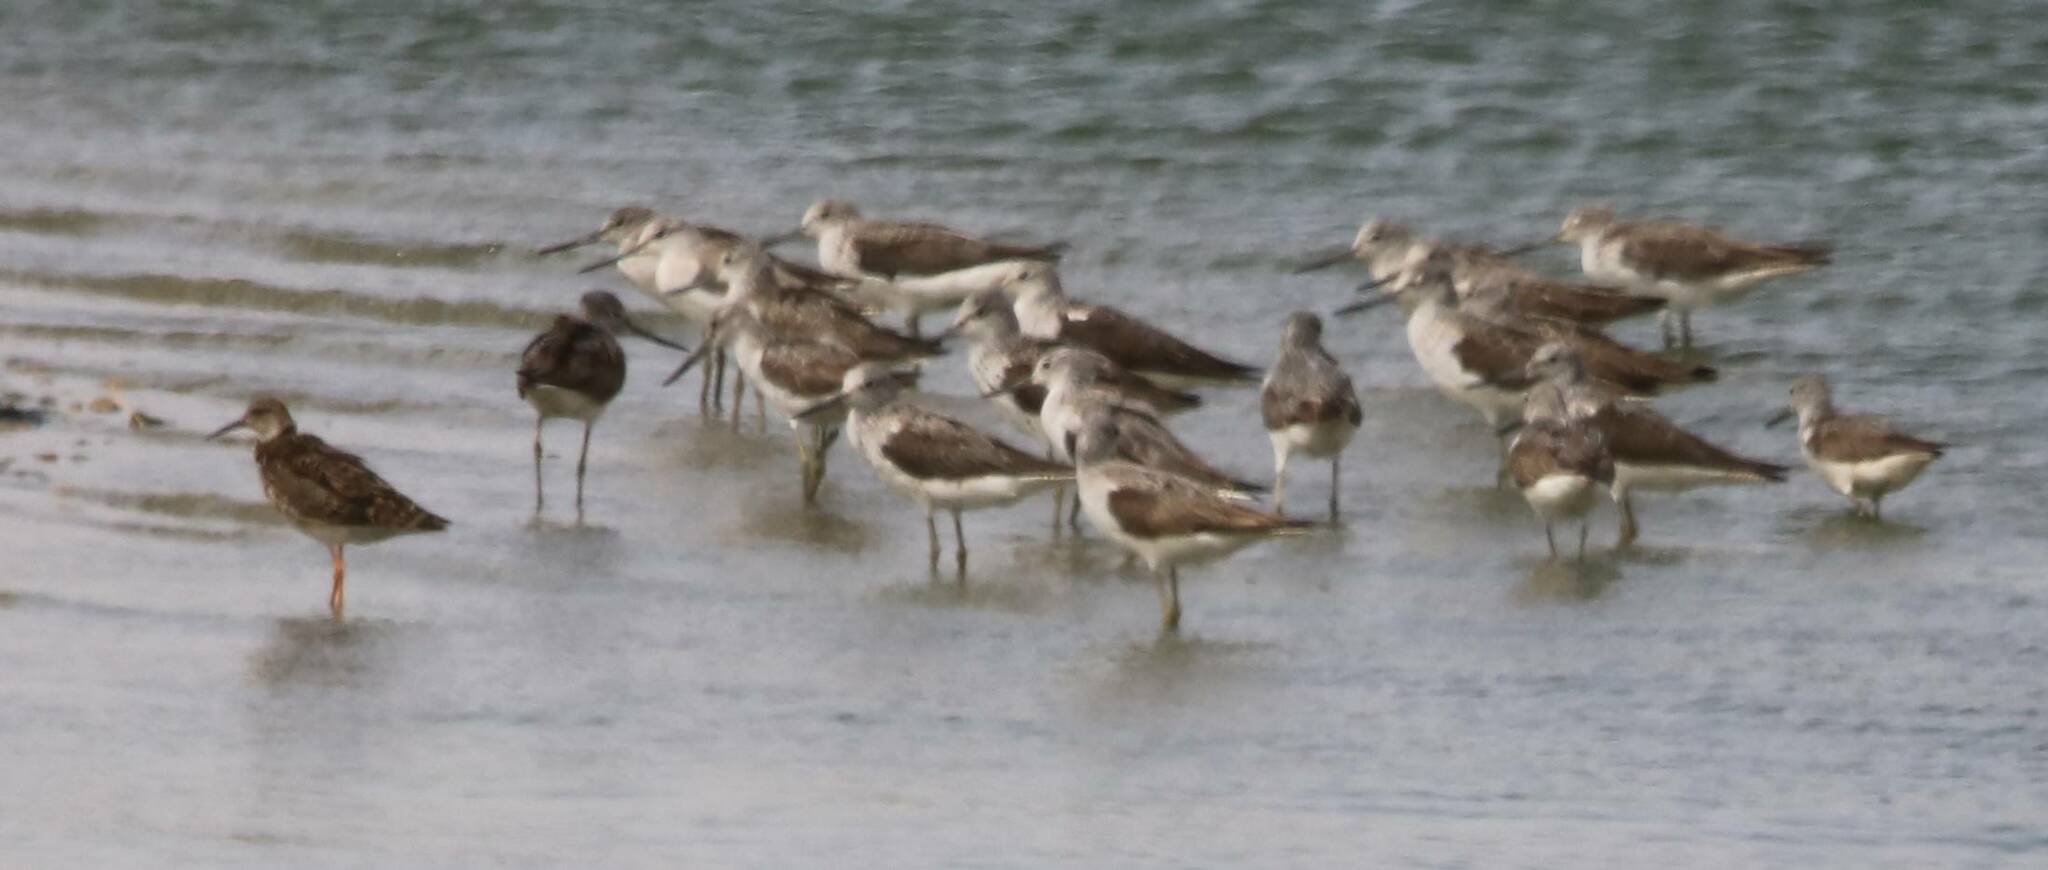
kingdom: Animalia
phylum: Chordata
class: Aves
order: Charadriiformes
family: Scolopacidae
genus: Tringa
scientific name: Tringa nebularia
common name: Common greenshank
